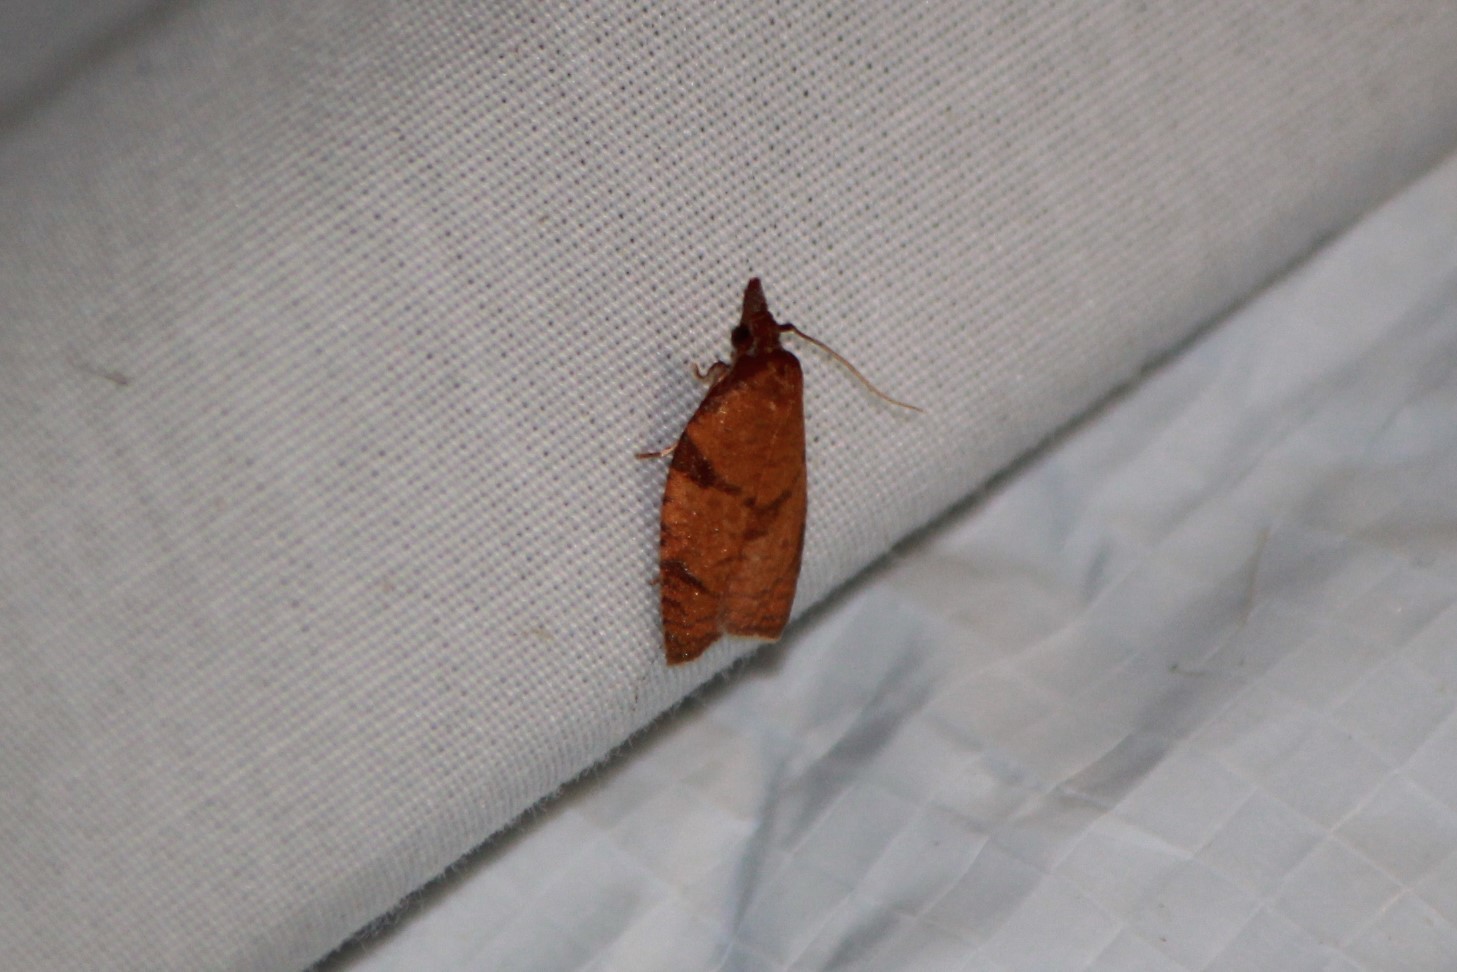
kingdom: Animalia
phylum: Arthropoda
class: Insecta
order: Lepidoptera
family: Tortricidae
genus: Cenopis
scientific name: Cenopis reticulatana
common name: Reticulated fruitworm moth
